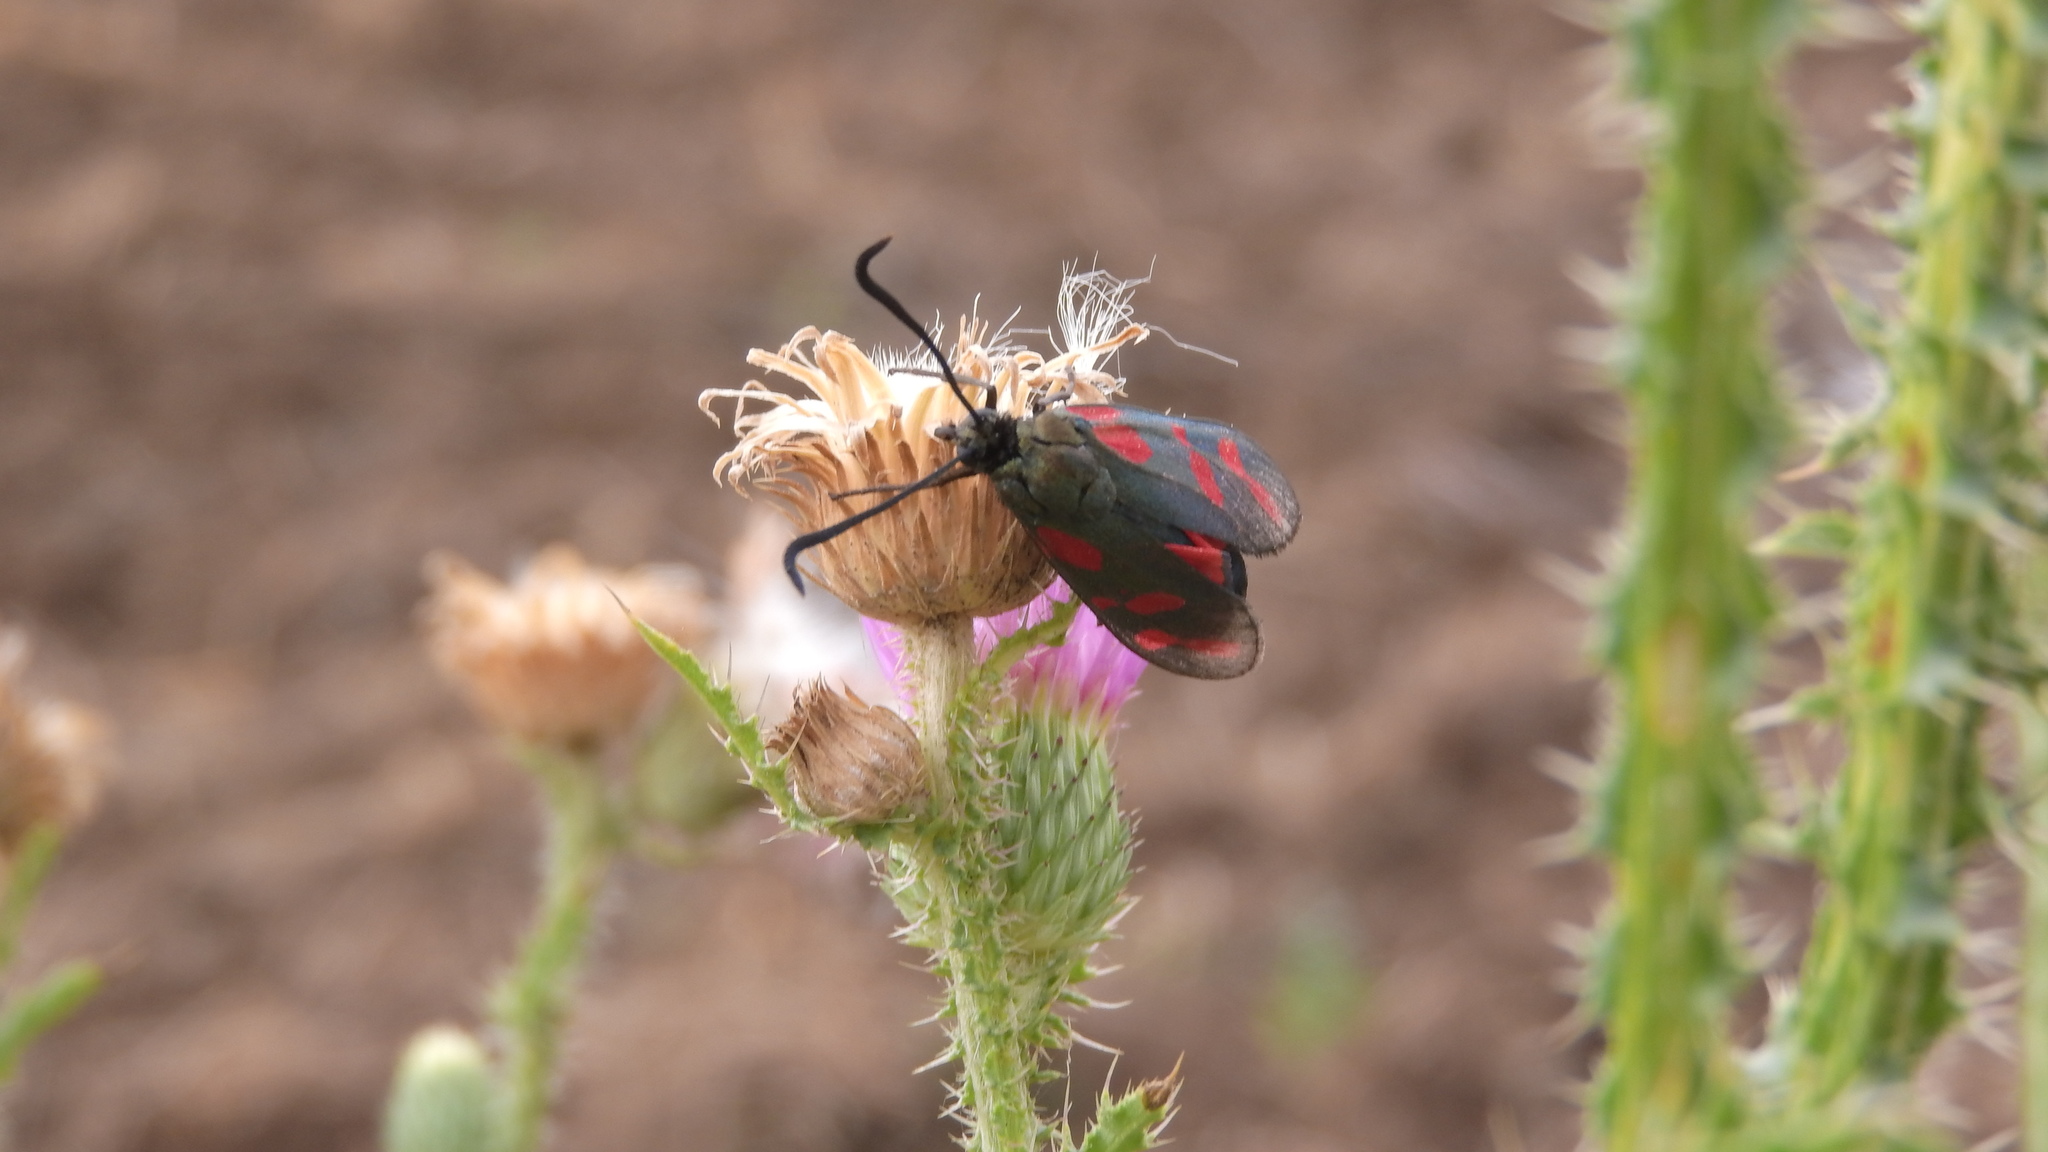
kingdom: Animalia
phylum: Arthropoda
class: Insecta
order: Lepidoptera
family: Zygaenidae
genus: Zygaena
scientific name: Zygaena filipendulae
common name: Six-spot burnet
